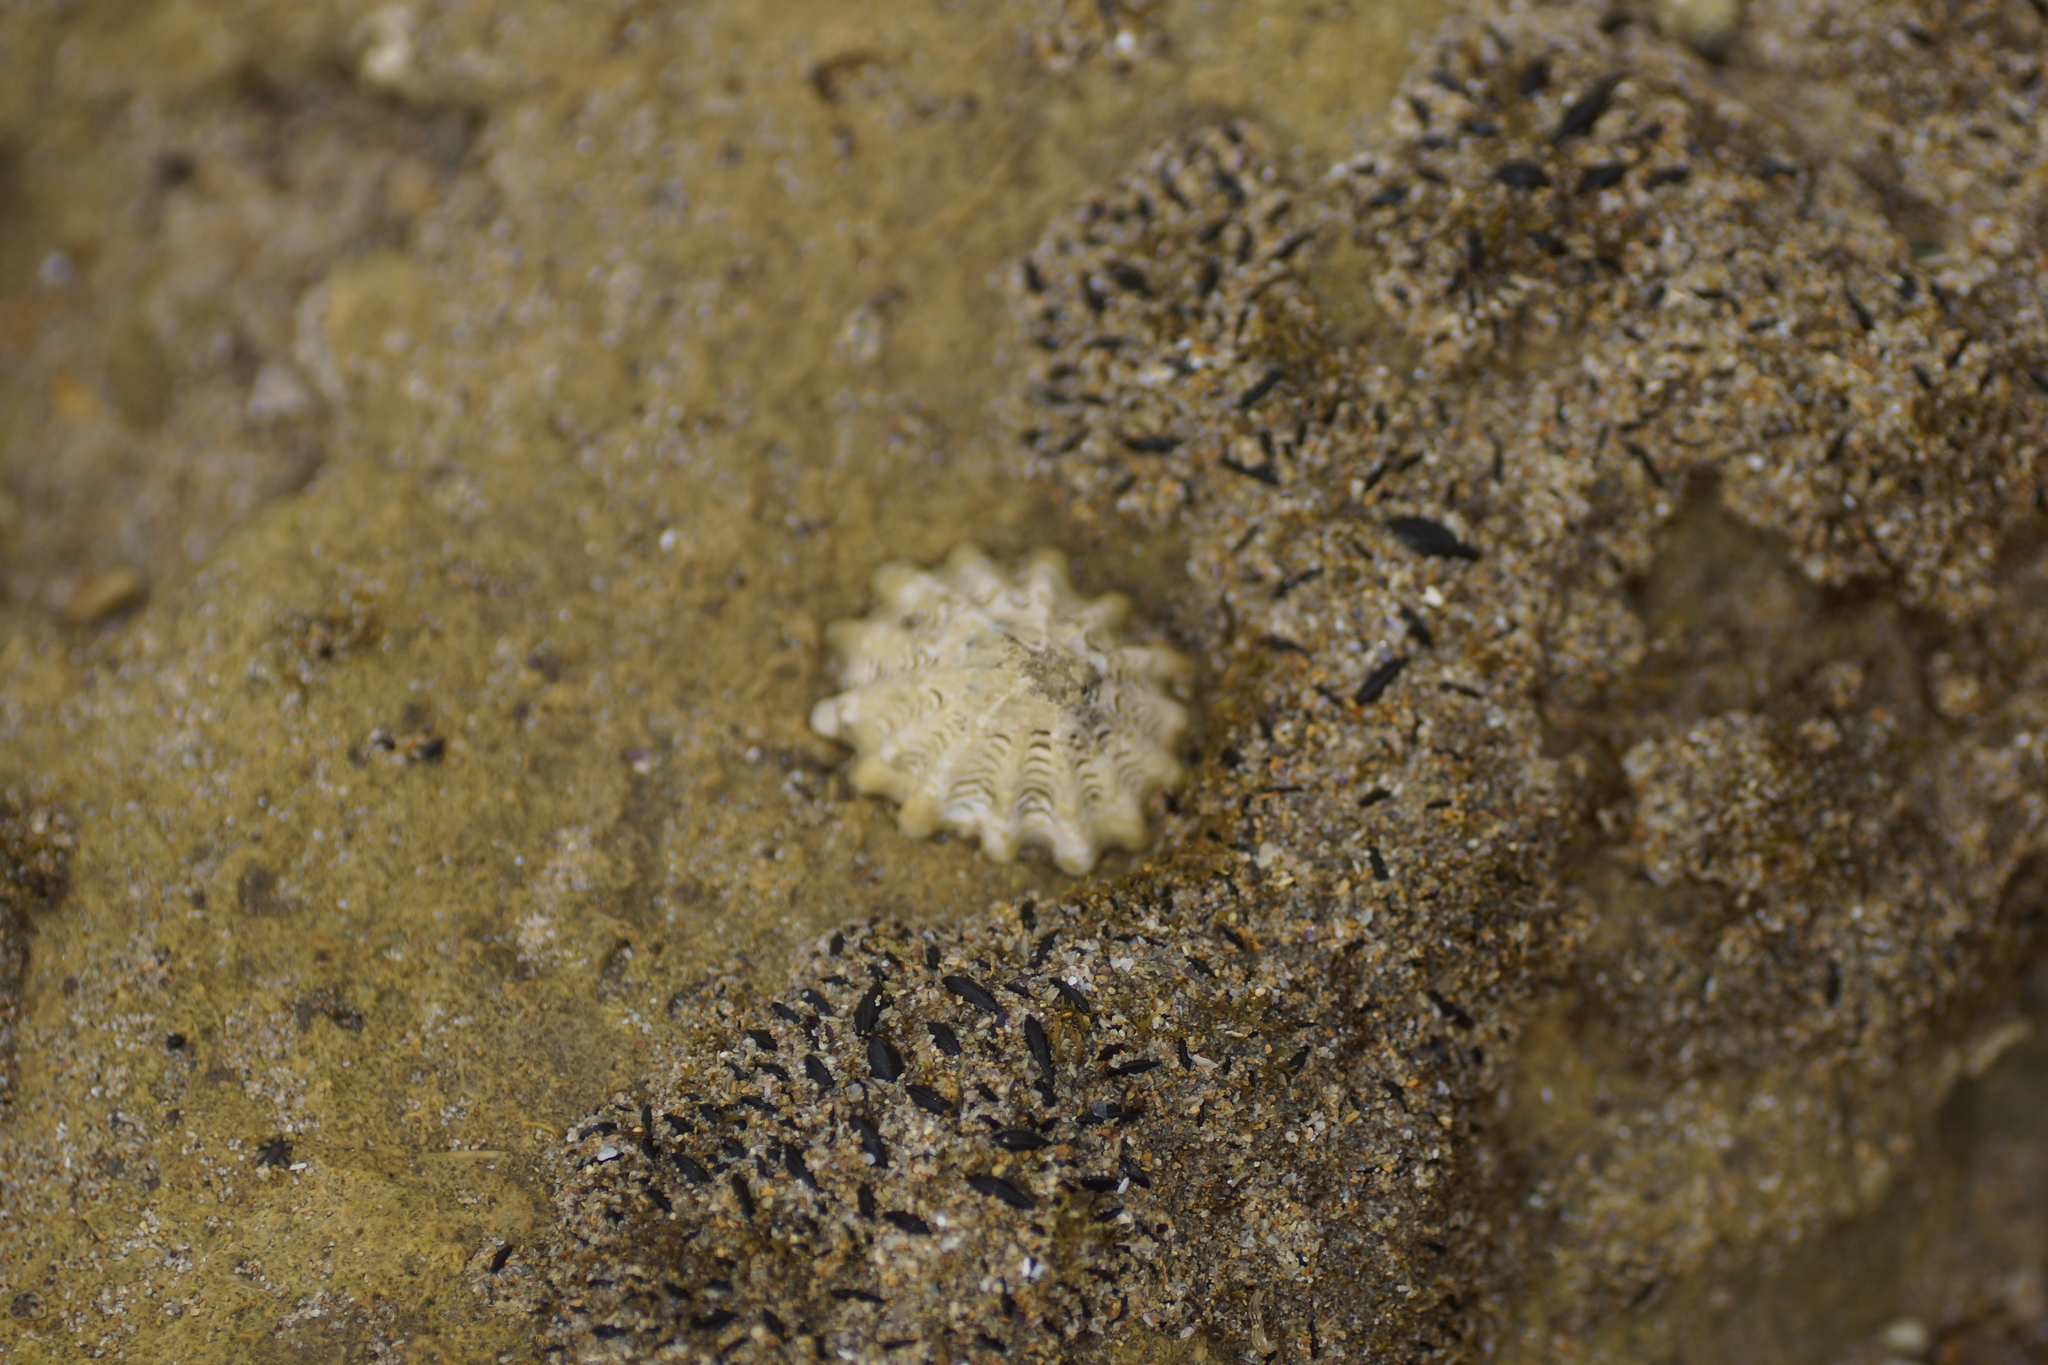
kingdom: Animalia
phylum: Mollusca
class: Gastropoda
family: Lottiidae
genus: Patelloida
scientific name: Patelloida alticostata
